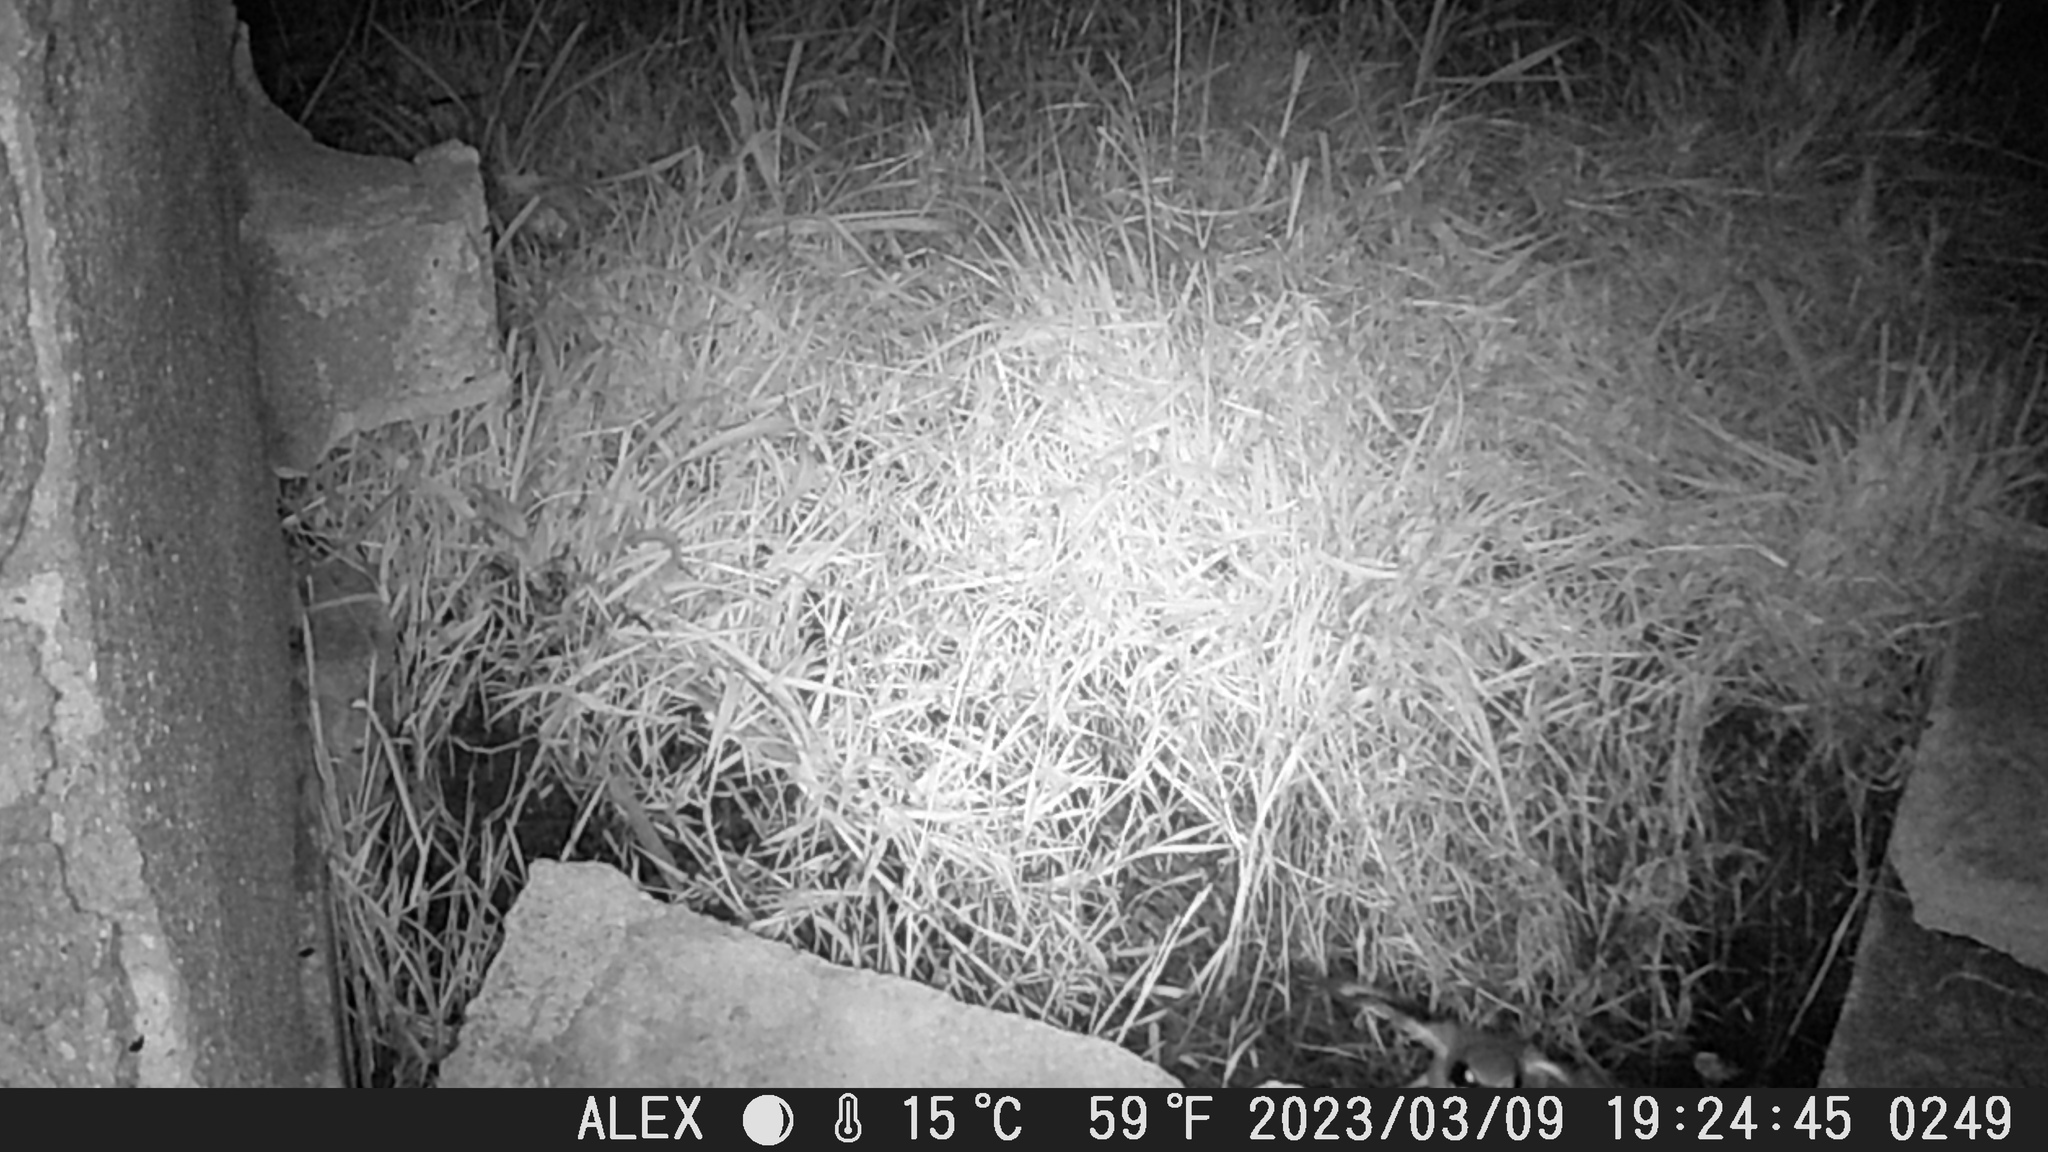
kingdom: Animalia
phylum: Chordata
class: Aves
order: Passeriformes
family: Laniidae
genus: Lanius
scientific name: Lanius ludovicianus
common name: Loggerhead shrike
